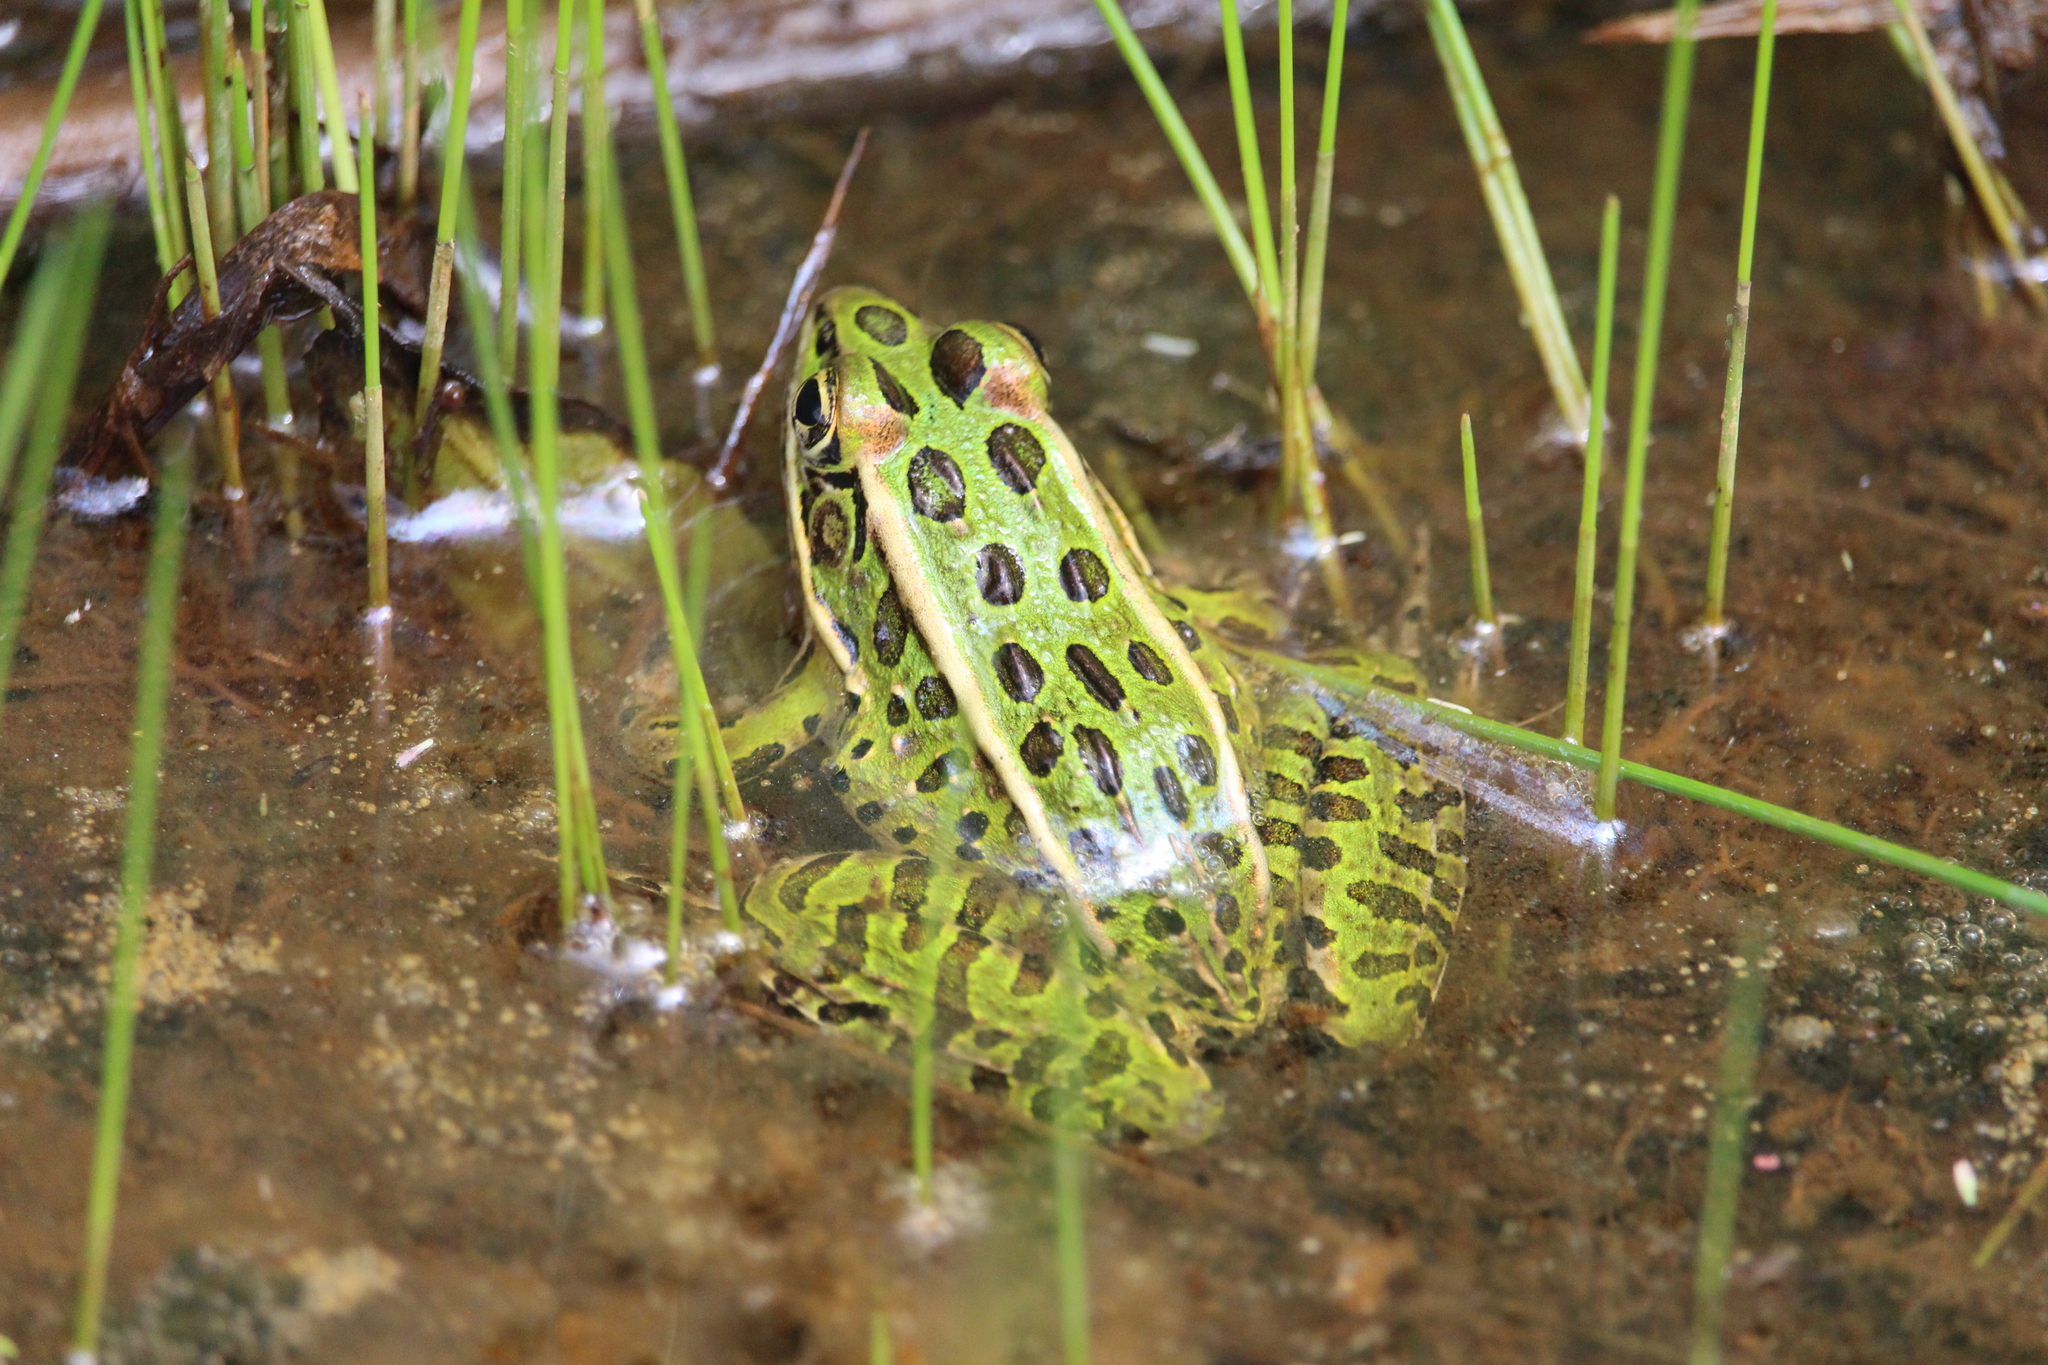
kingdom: Animalia
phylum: Chordata
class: Amphibia
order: Anura
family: Ranidae
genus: Lithobates
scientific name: Lithobates pipiens
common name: Northern leopard frog
